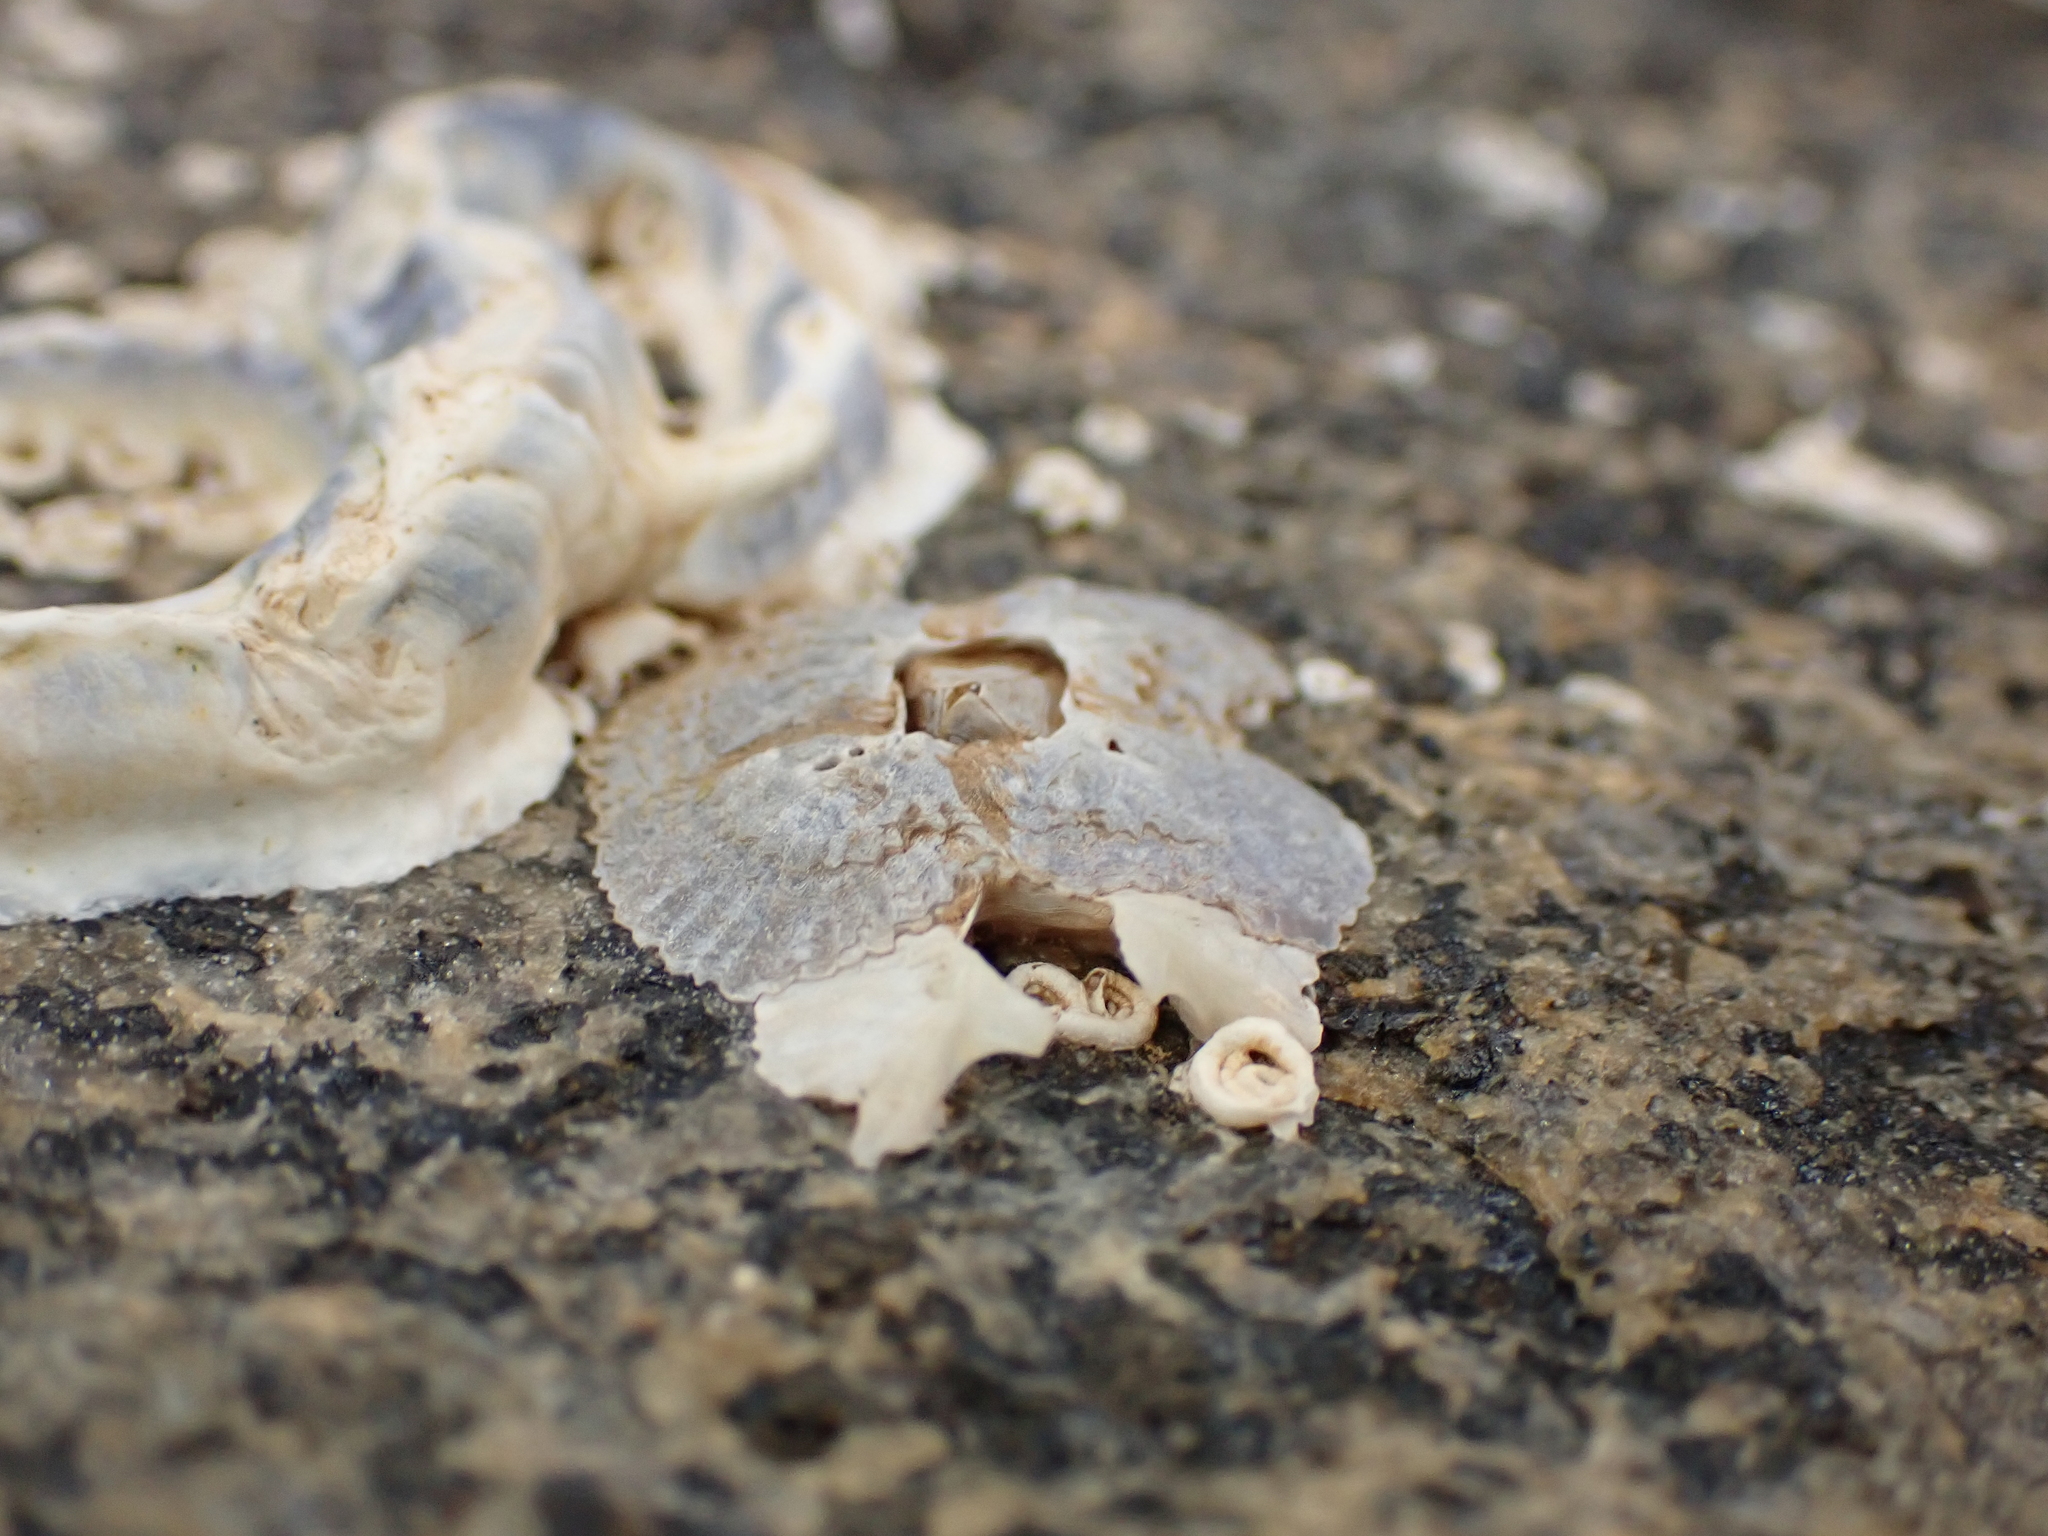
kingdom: Animalia
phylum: Arthropoda
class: Maxillopoda
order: Sessilia
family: Tetraclitidae
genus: Tetraclitella
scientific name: Tetraclitella depressa
